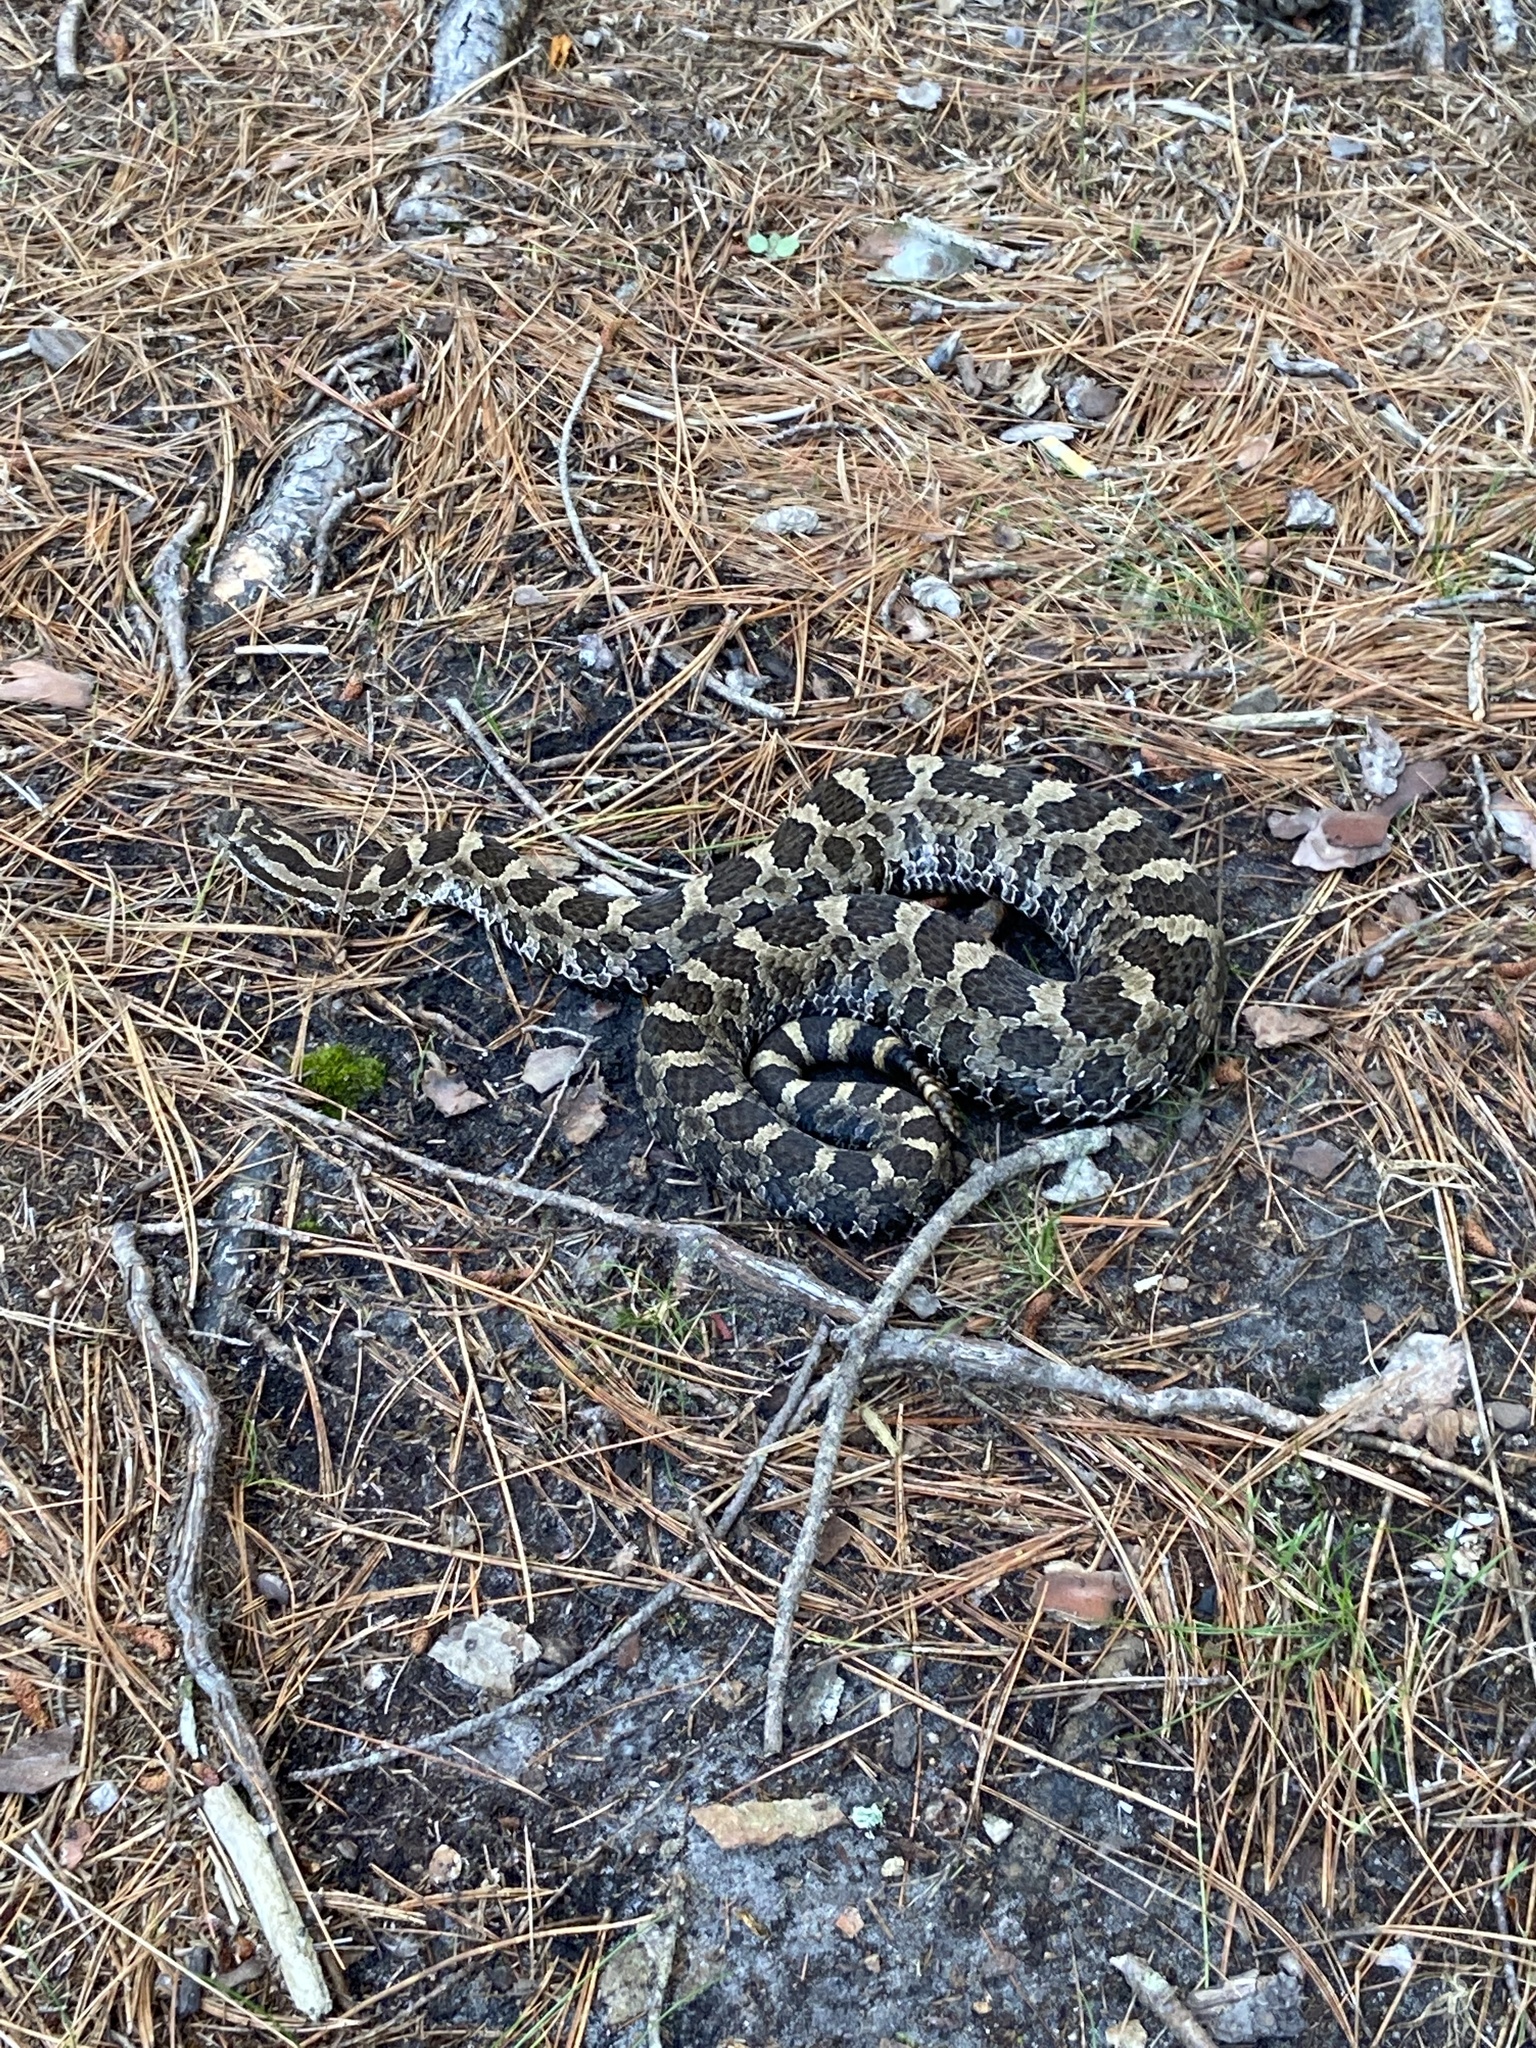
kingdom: Animalia
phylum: Chordata
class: Squamata
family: Viperidae
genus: Sistrurus
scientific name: Sistrurus catenatus
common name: Massasauga
